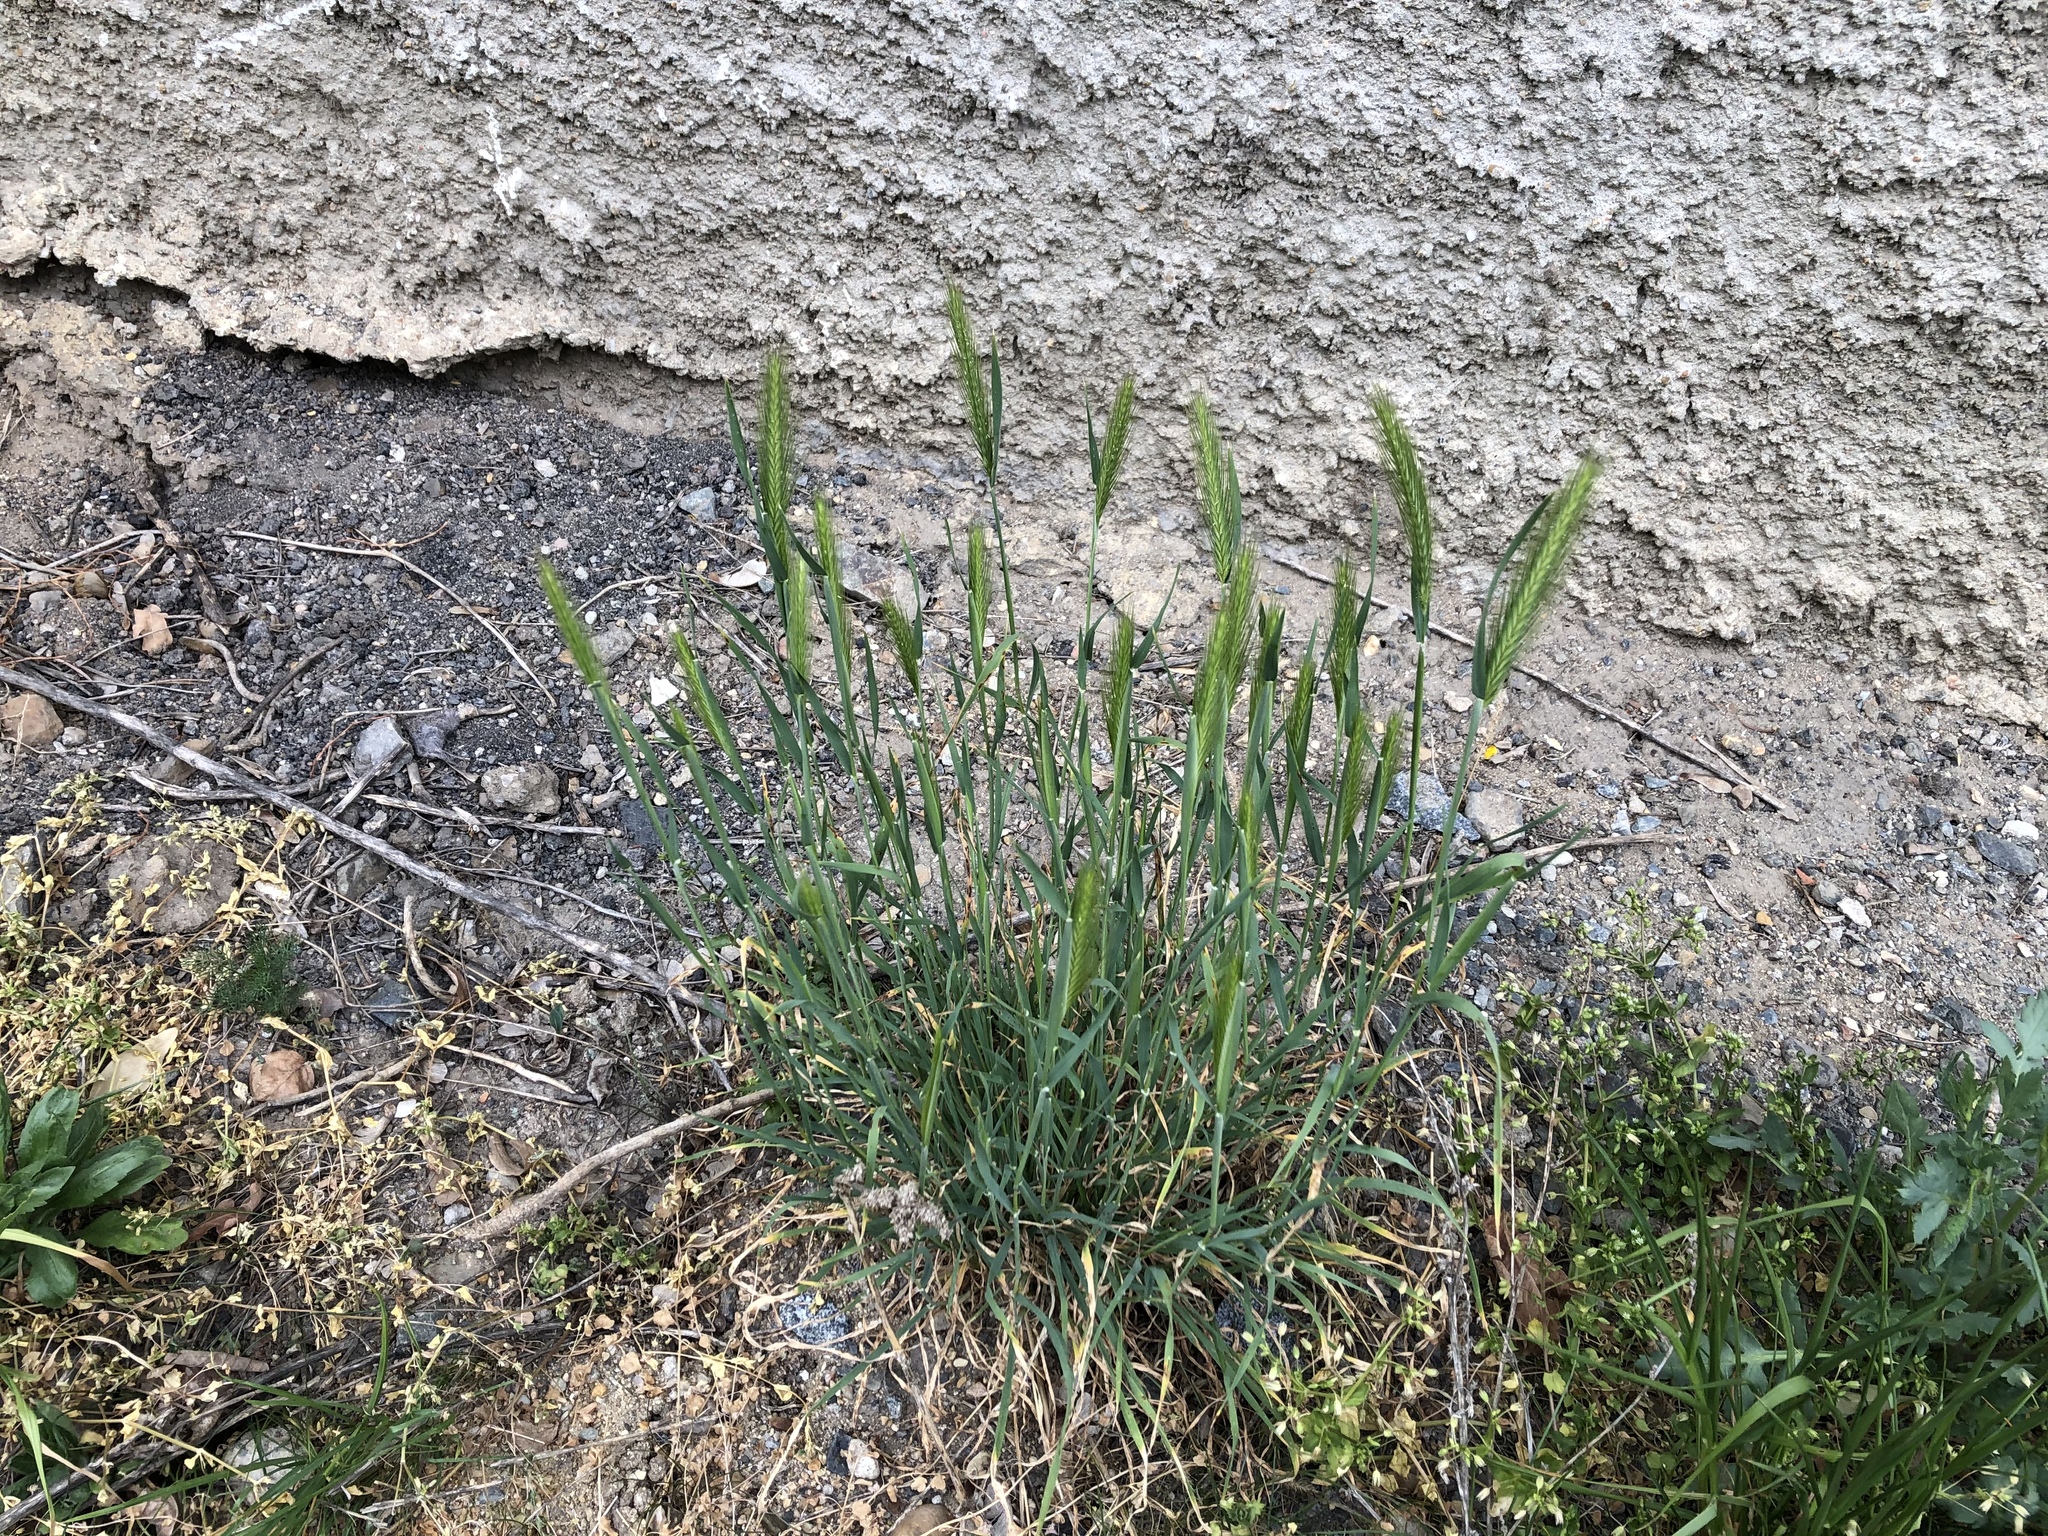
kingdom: Plantae
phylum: Tracheophyta
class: Liliopsida
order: Poales
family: Poaceae
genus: Hordeum
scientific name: Hordeum murinum
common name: Wall barley
